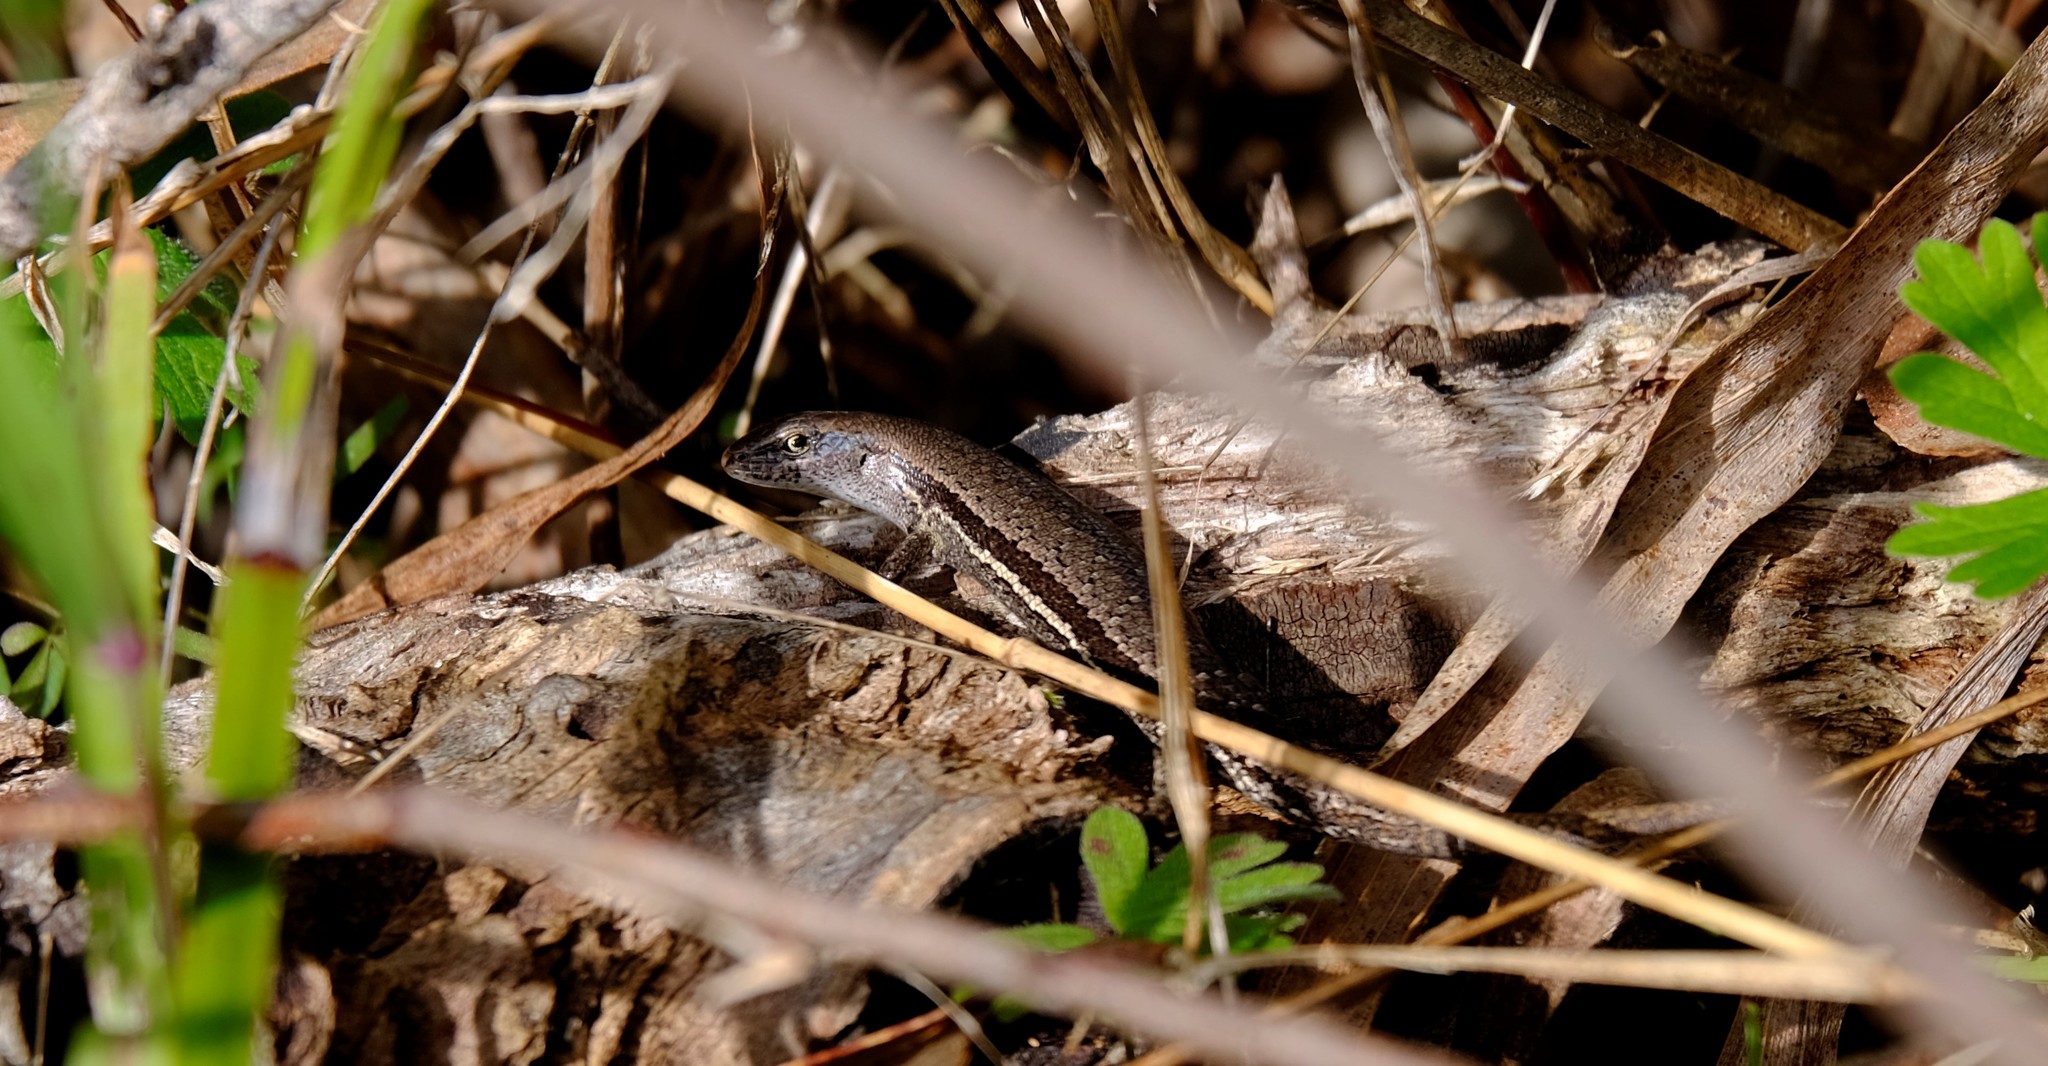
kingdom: Animalia
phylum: Chordata
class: Squamata
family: Scincidae
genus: Lampropholis
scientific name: Lampropholis guichenoti
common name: Garden skink
